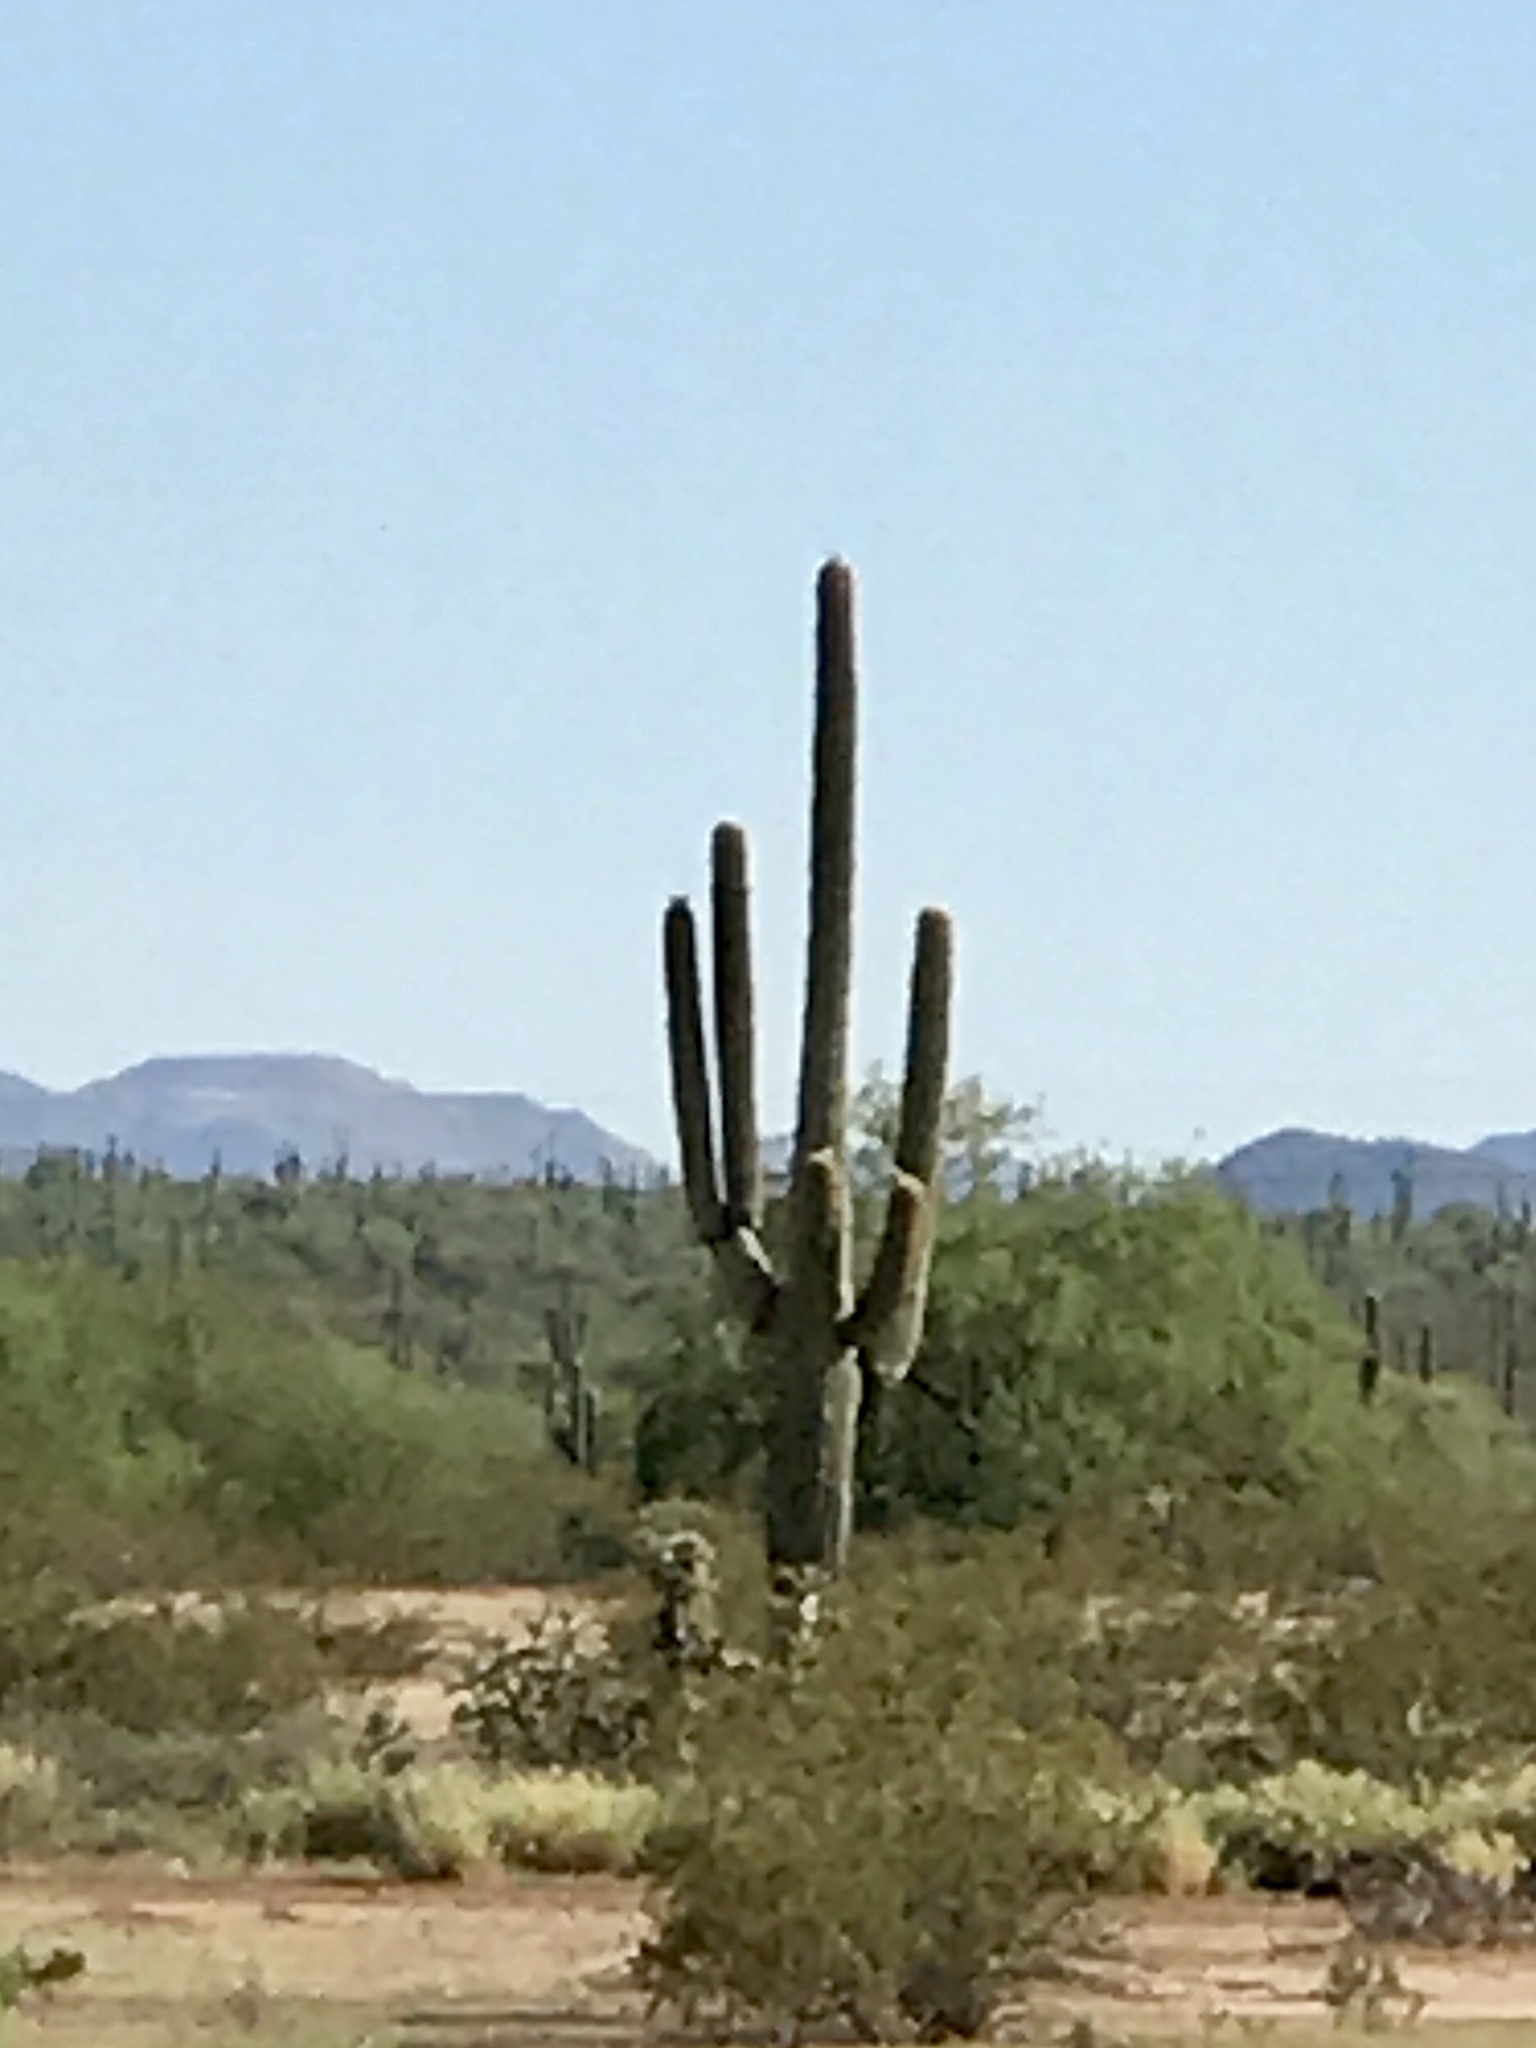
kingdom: Plantae
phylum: Tracheophyta
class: Magnoliopsida
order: Caryophyllales
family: Cactaceae
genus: Carnegiea
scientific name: Carnegiea gigantea
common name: Saguaro
